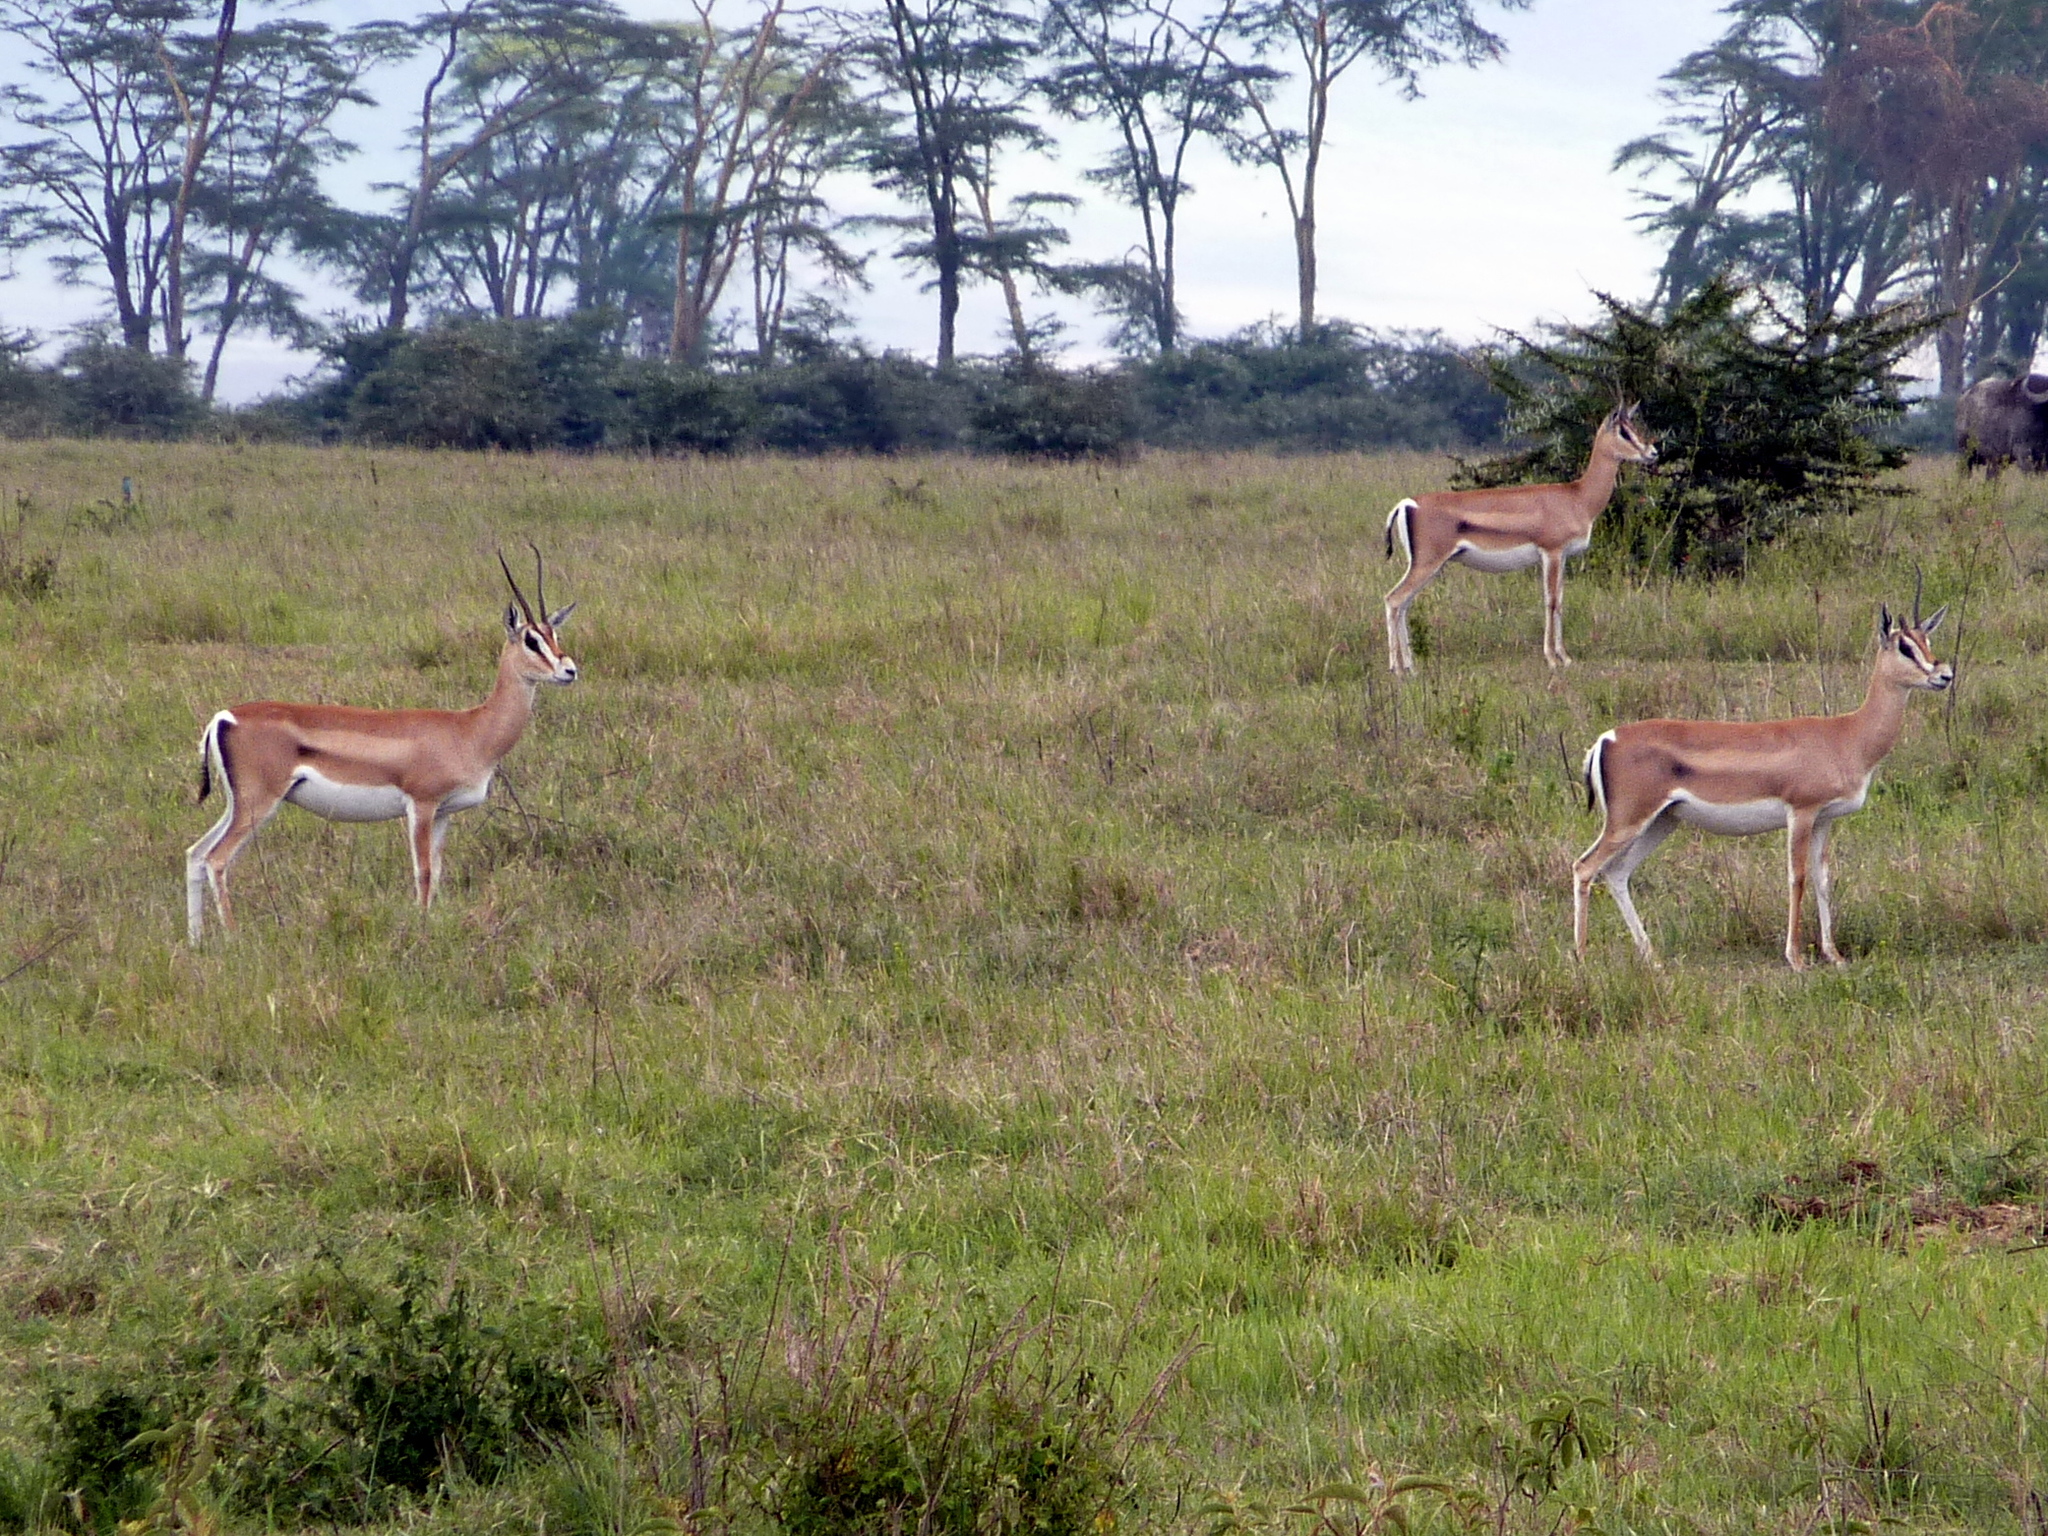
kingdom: Animalia
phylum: Chordata
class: Mammalia
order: Artiodactyla
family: Bovidae
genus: Nanger
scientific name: Nanger granti
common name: Grant's gazelle
